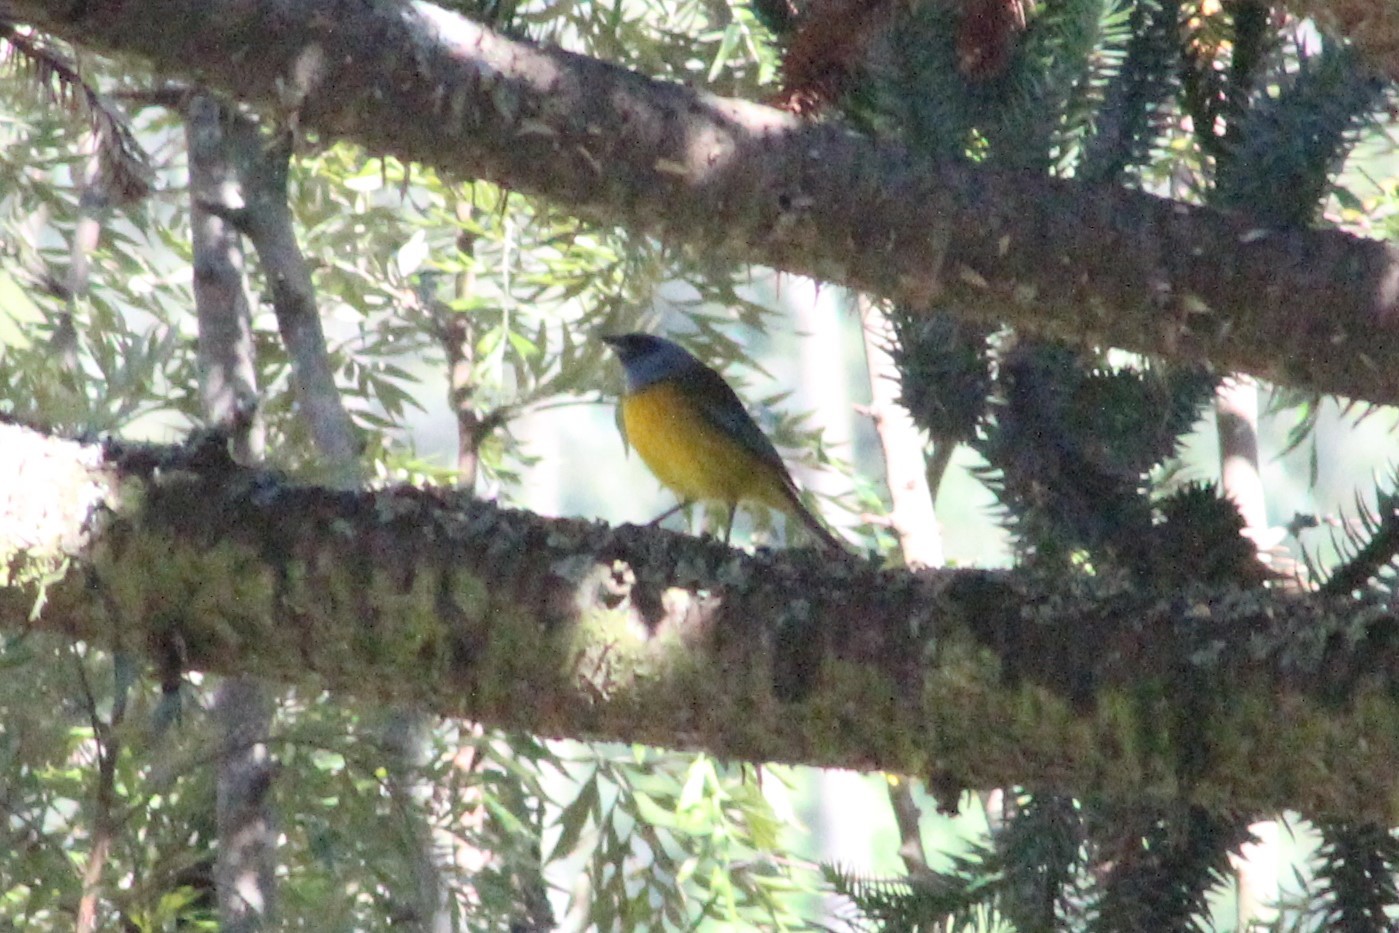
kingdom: Animalia
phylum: Chordata
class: Aves
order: Passeriformes
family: Thraupidae
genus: Rauenia
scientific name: Rauenia bonariensis
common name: Blue-and-yellow tanager
